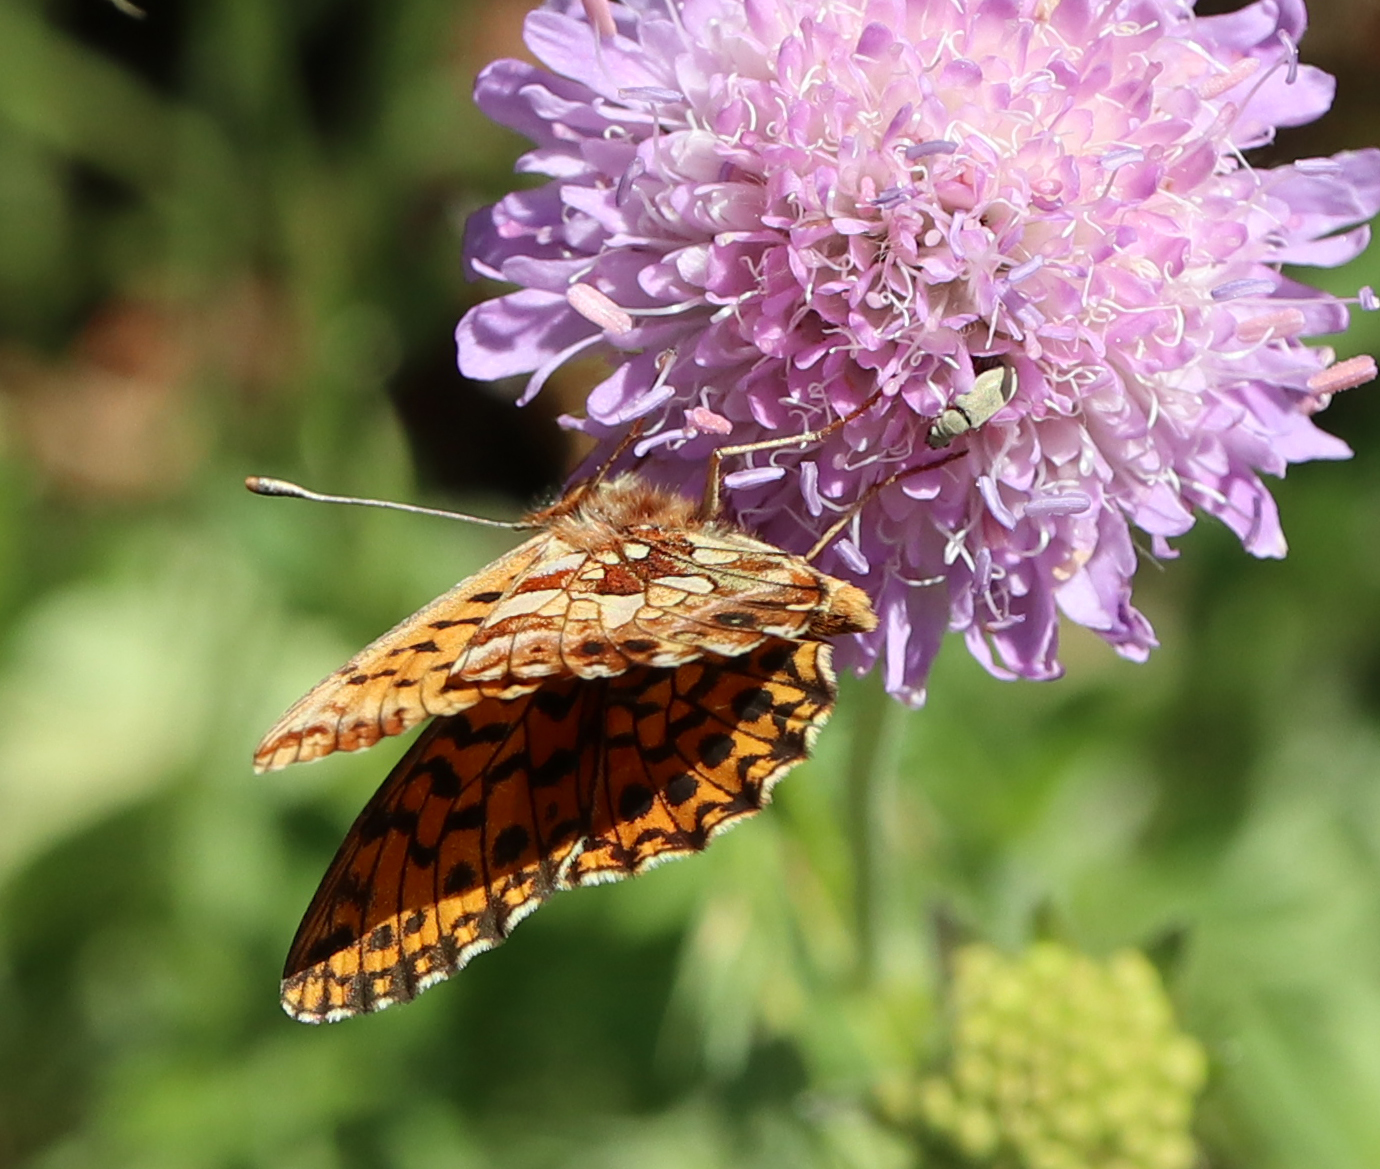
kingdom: Animalia
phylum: Arthropoda
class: Insecta
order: Lepidoptera
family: Nymphalidae
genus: Boloria
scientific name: Boloria dia
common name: Weaver's fritillary
